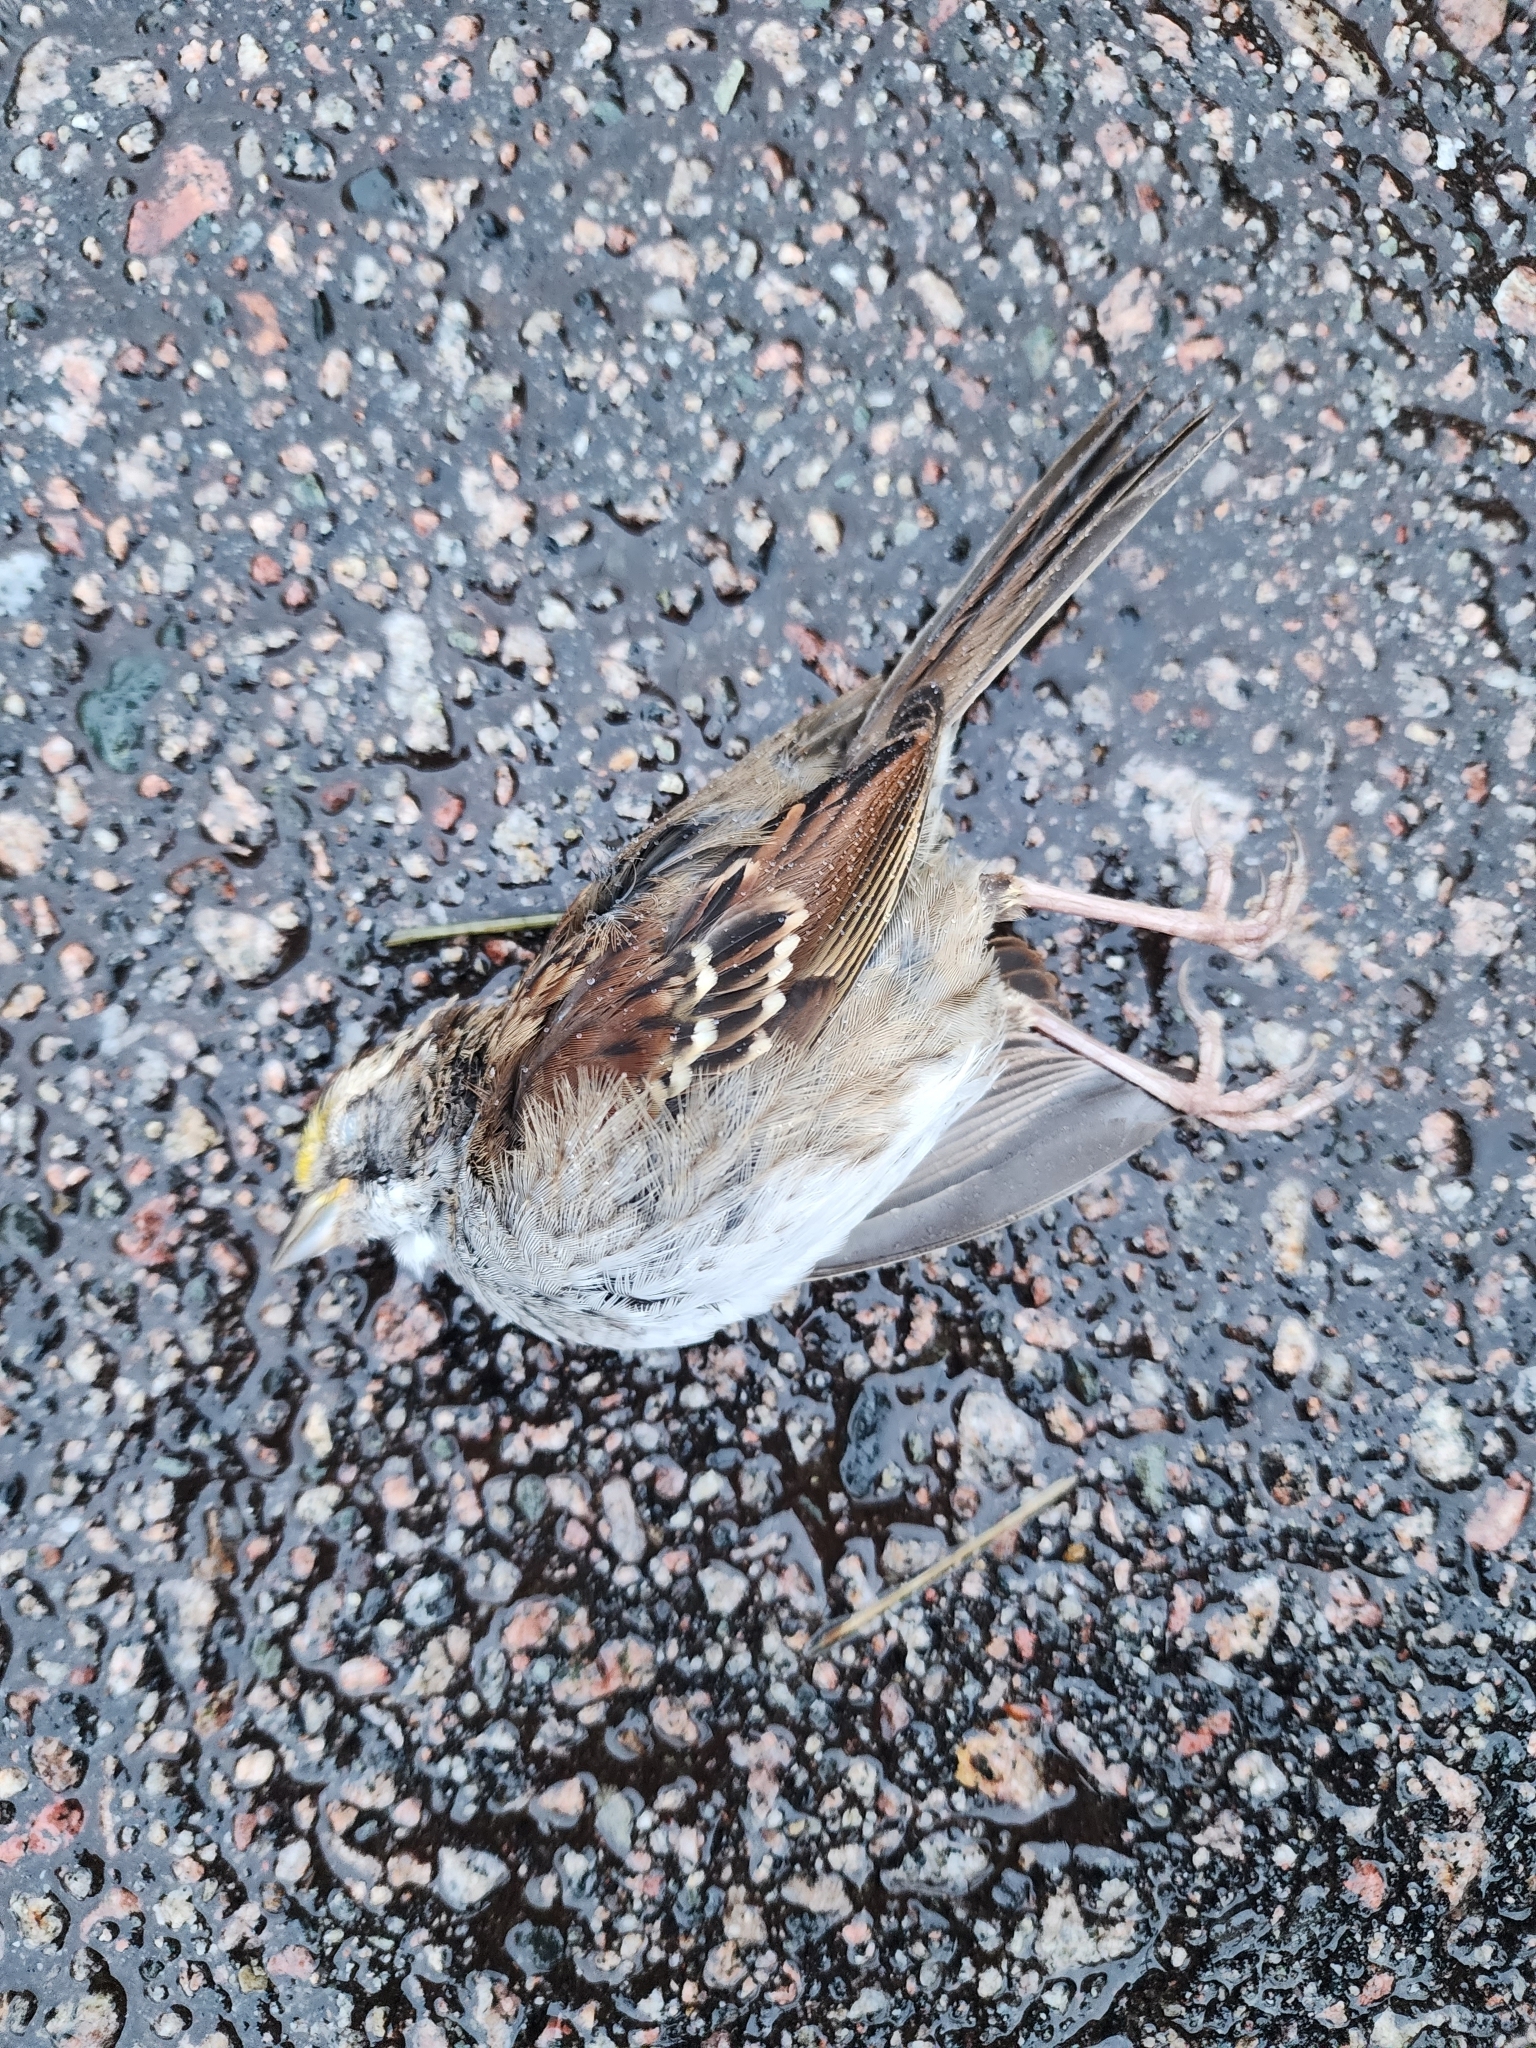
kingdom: Animalia
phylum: Chordata
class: Aves
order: Passeriformes
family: Passerellidae
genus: Zonotrichia
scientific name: Zonotrichia albicollis
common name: White-throated sparrow
